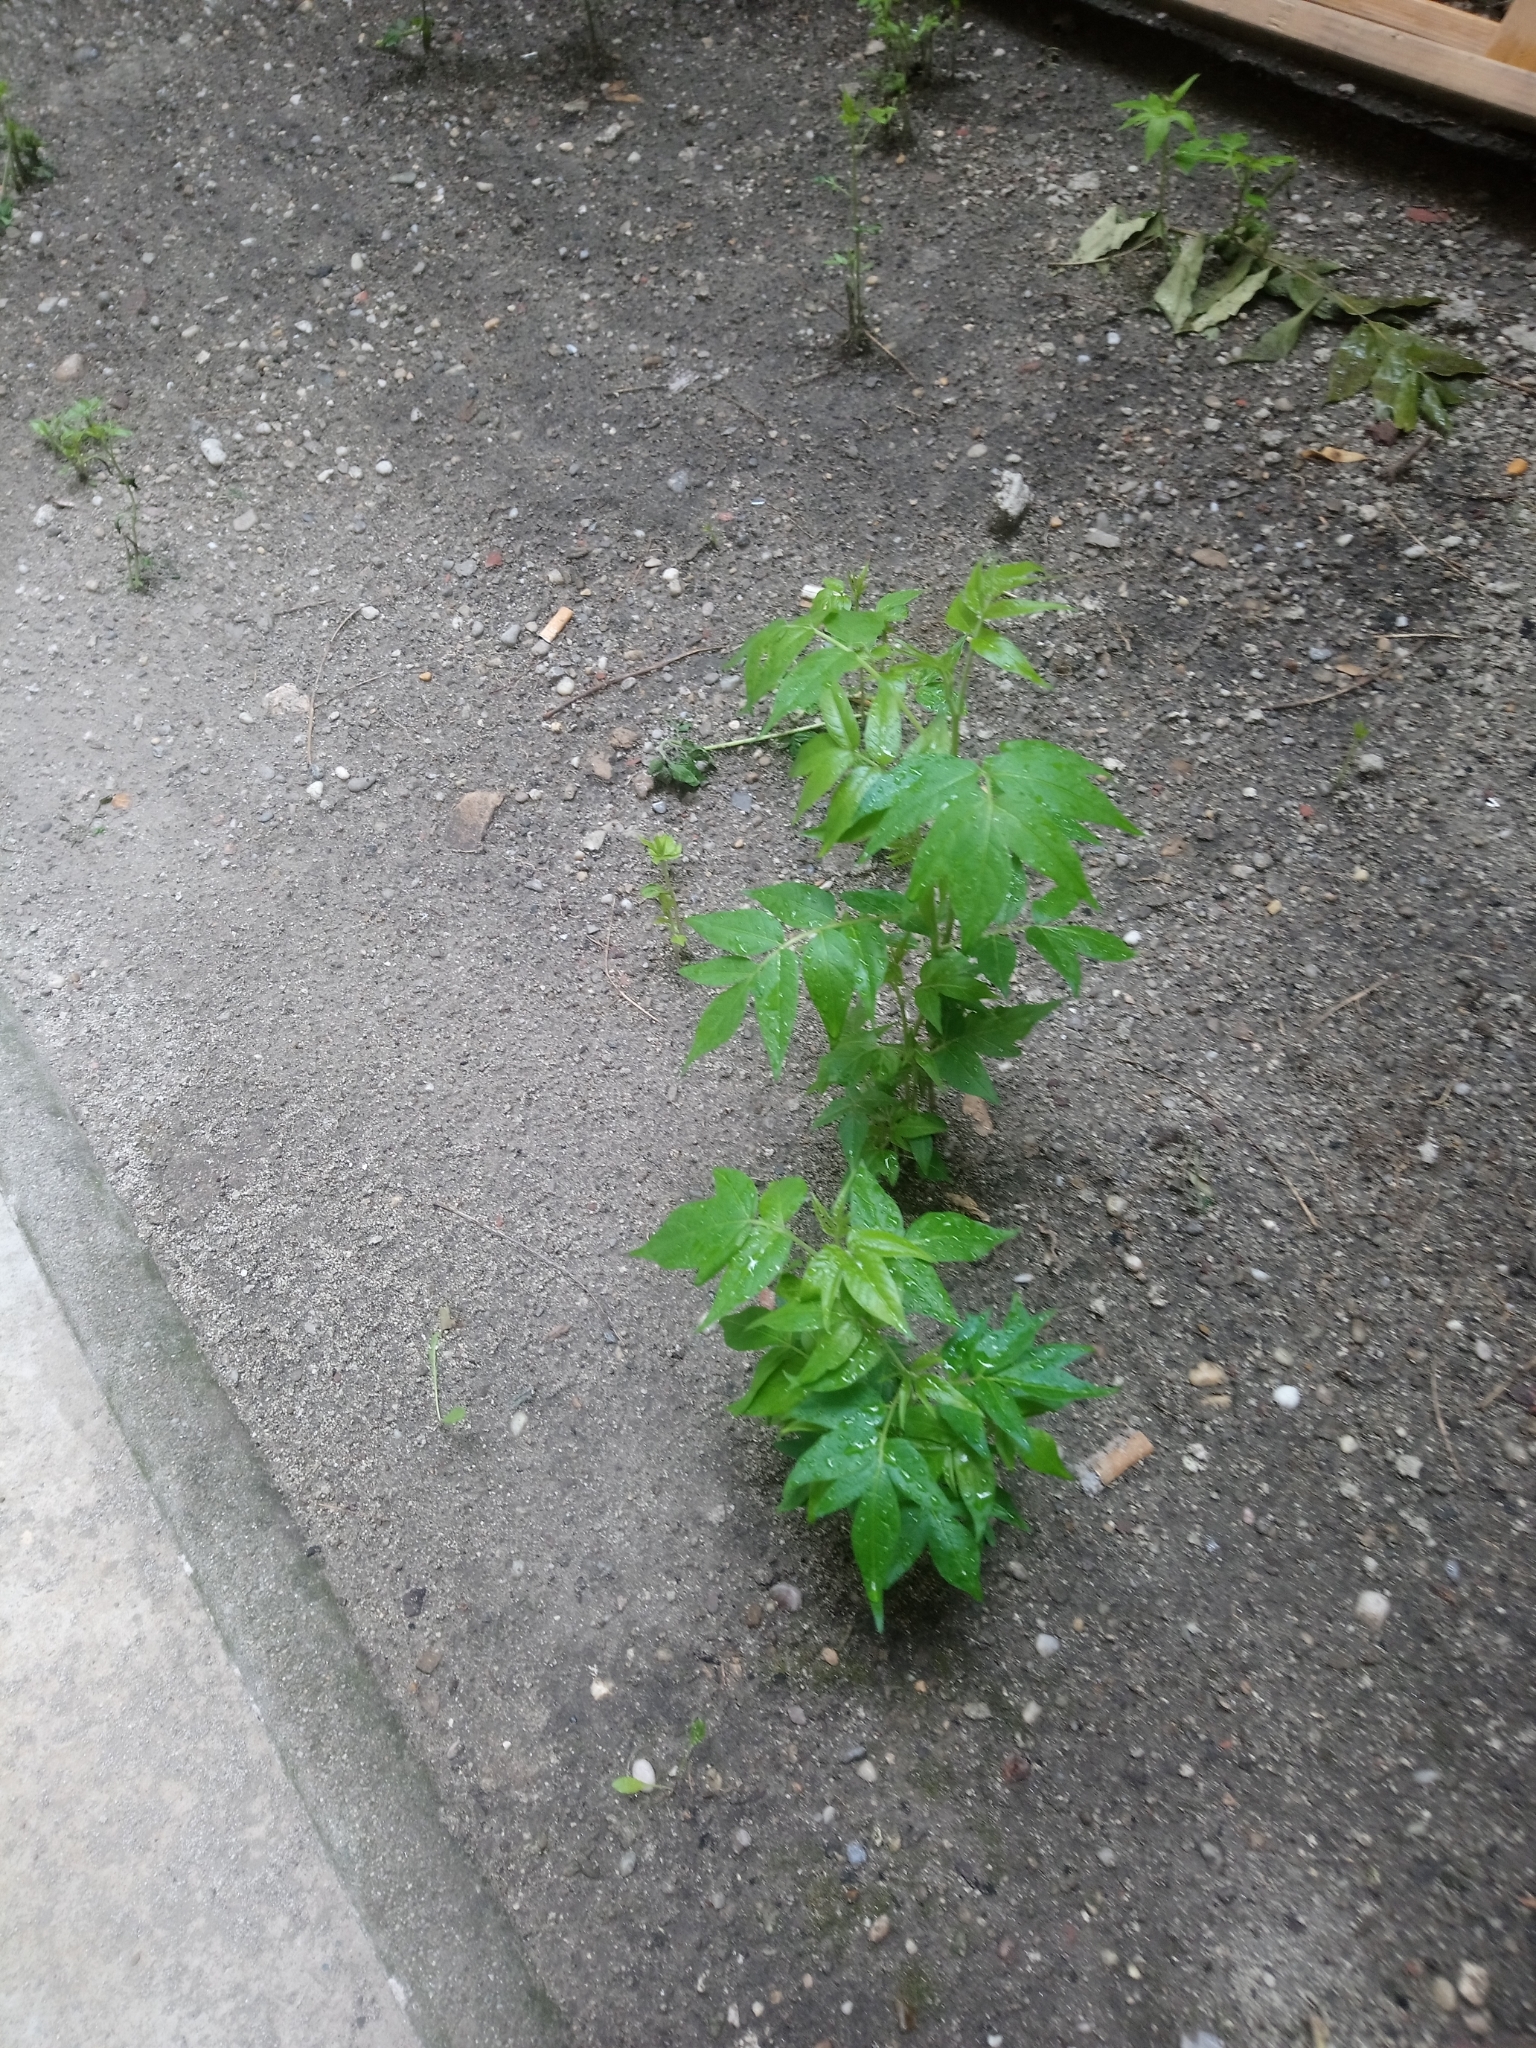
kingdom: Plantae
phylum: Tracheophyta
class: Magnoliopsida
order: Sapindales
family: Simaroubaceae
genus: Ailanthus
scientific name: Ailanthus altissima
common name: Tree-of-heaven
